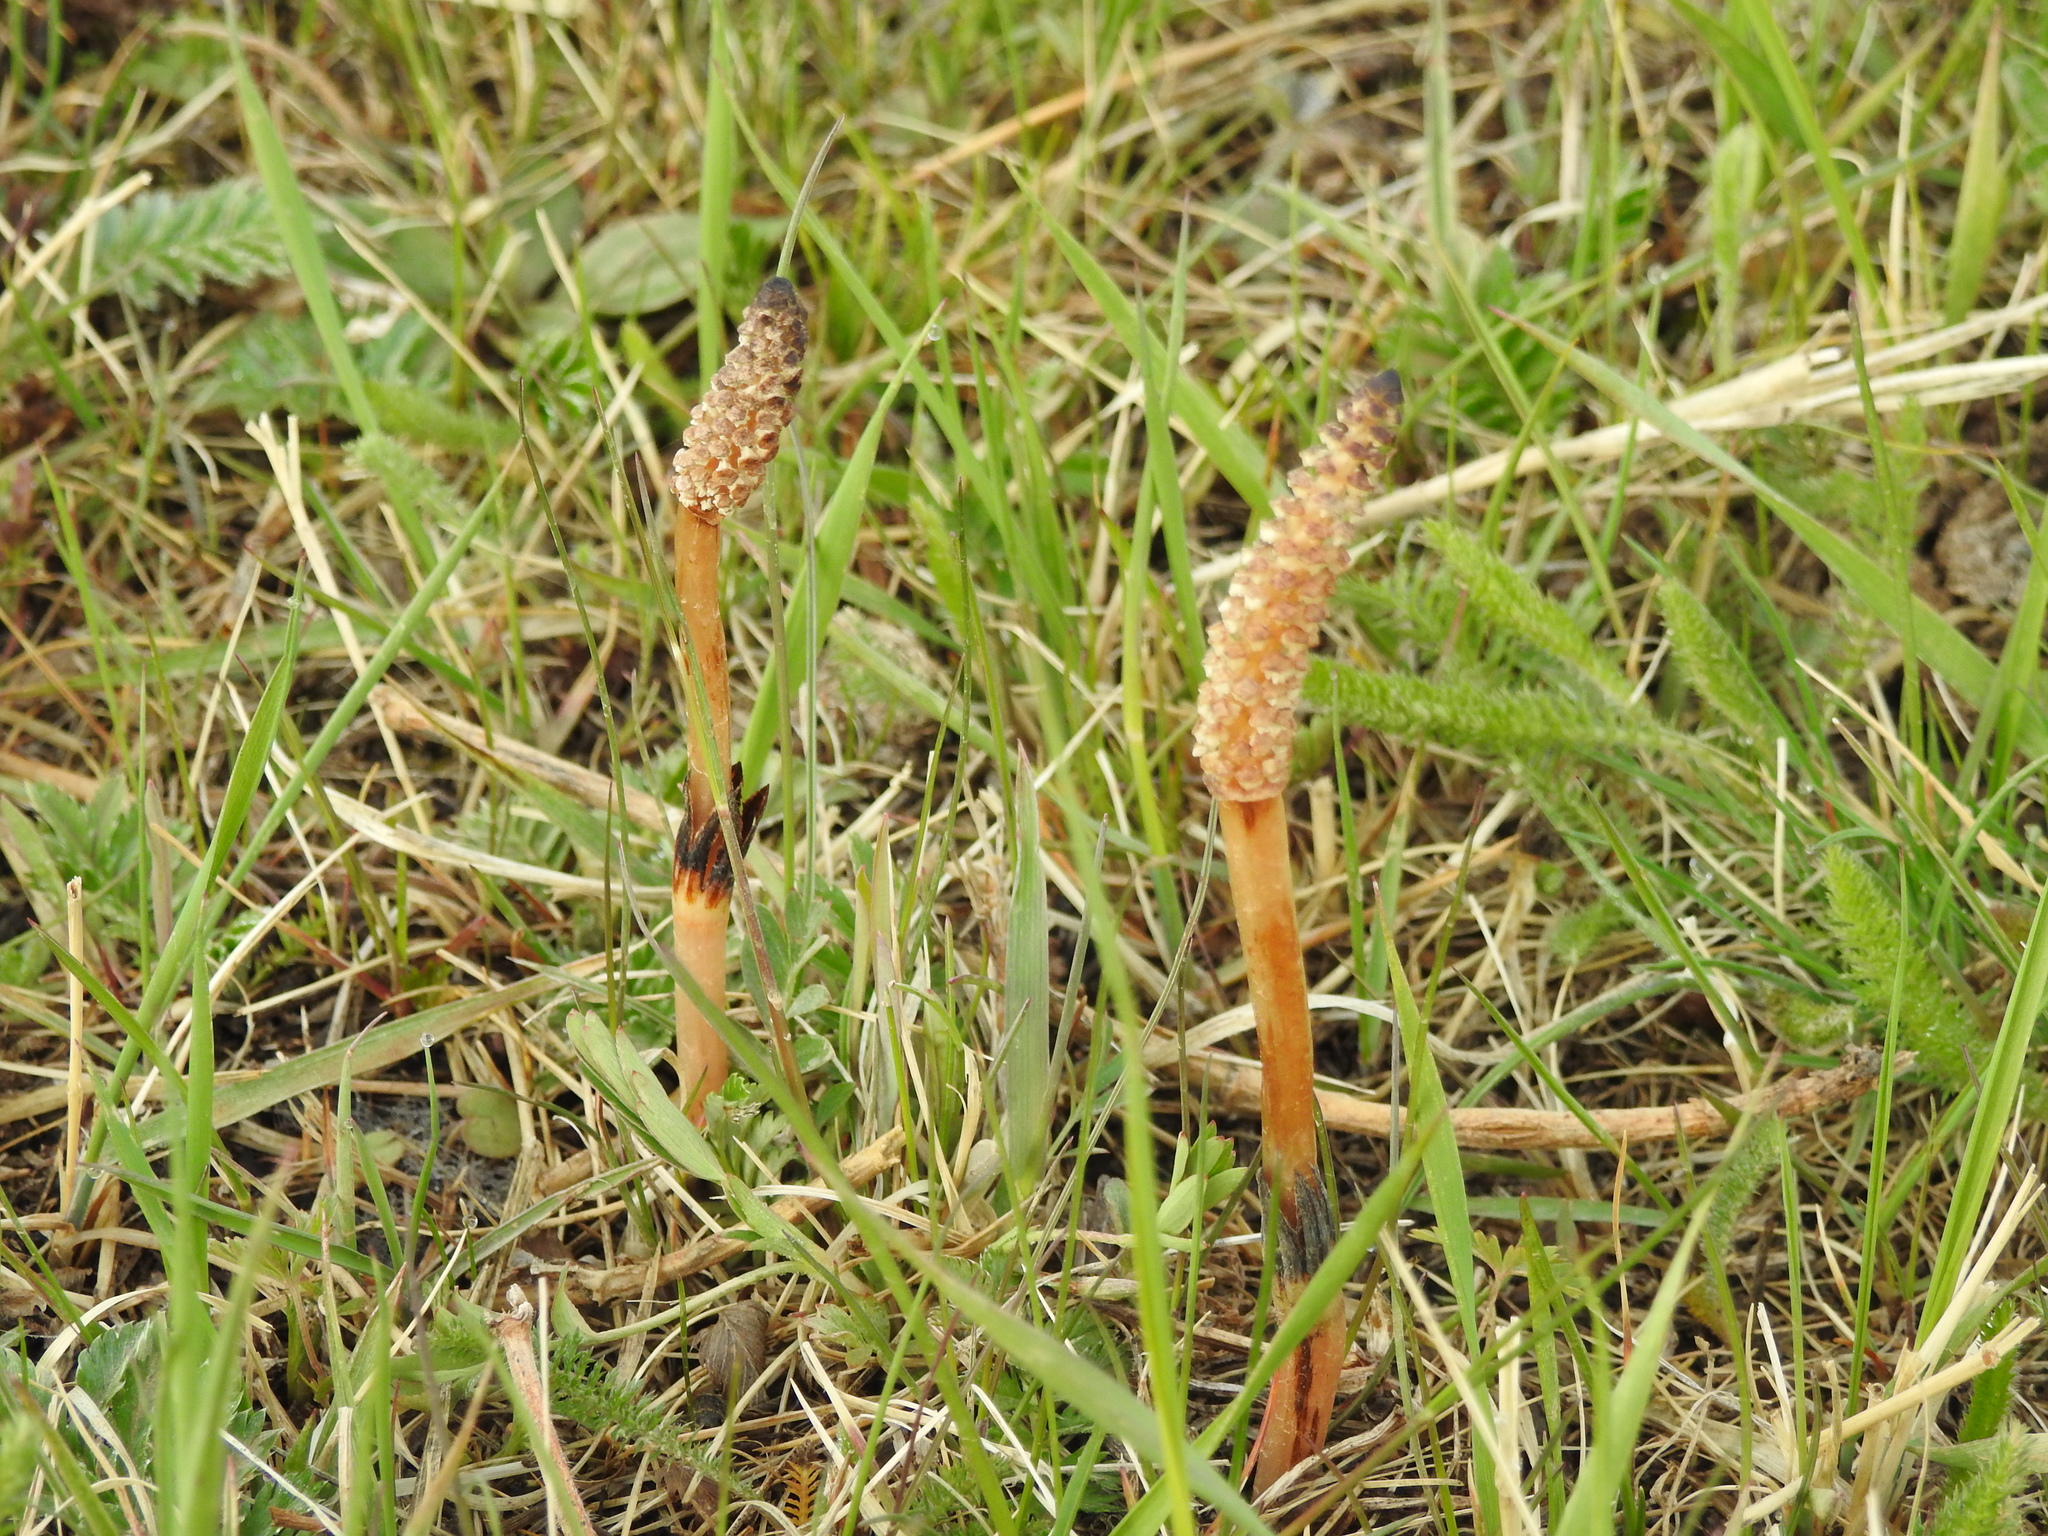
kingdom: Plantae
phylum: Tracheophyta
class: Polypodiopsida
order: Equisetales
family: Equisetaceae
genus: Equisetum
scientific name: Equisetum arvense
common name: Field horsetail
